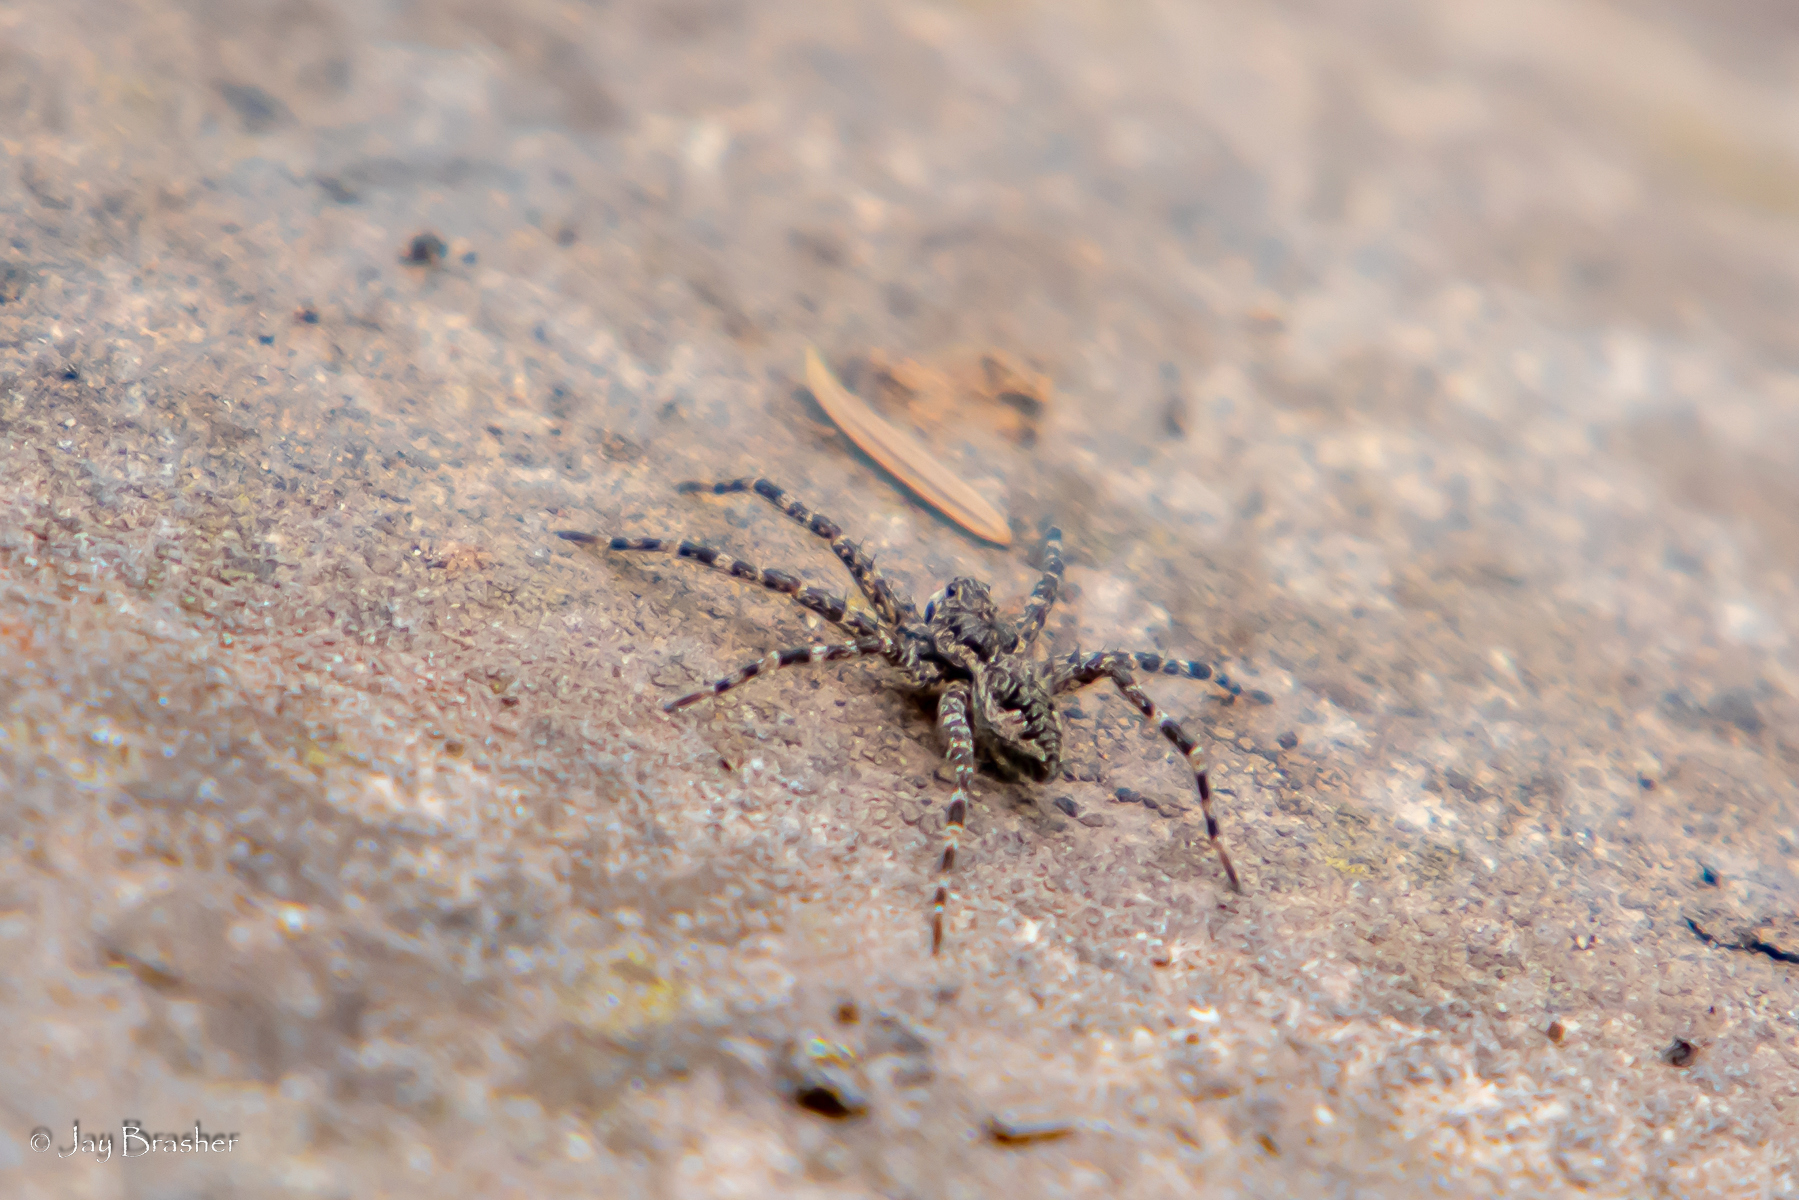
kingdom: Animalia
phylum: Arthropoda
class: Arachnida
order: Araneae
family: Pisauridae
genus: Dolomedes
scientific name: Dolomedes tenebrosus
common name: Dark fishing spider
